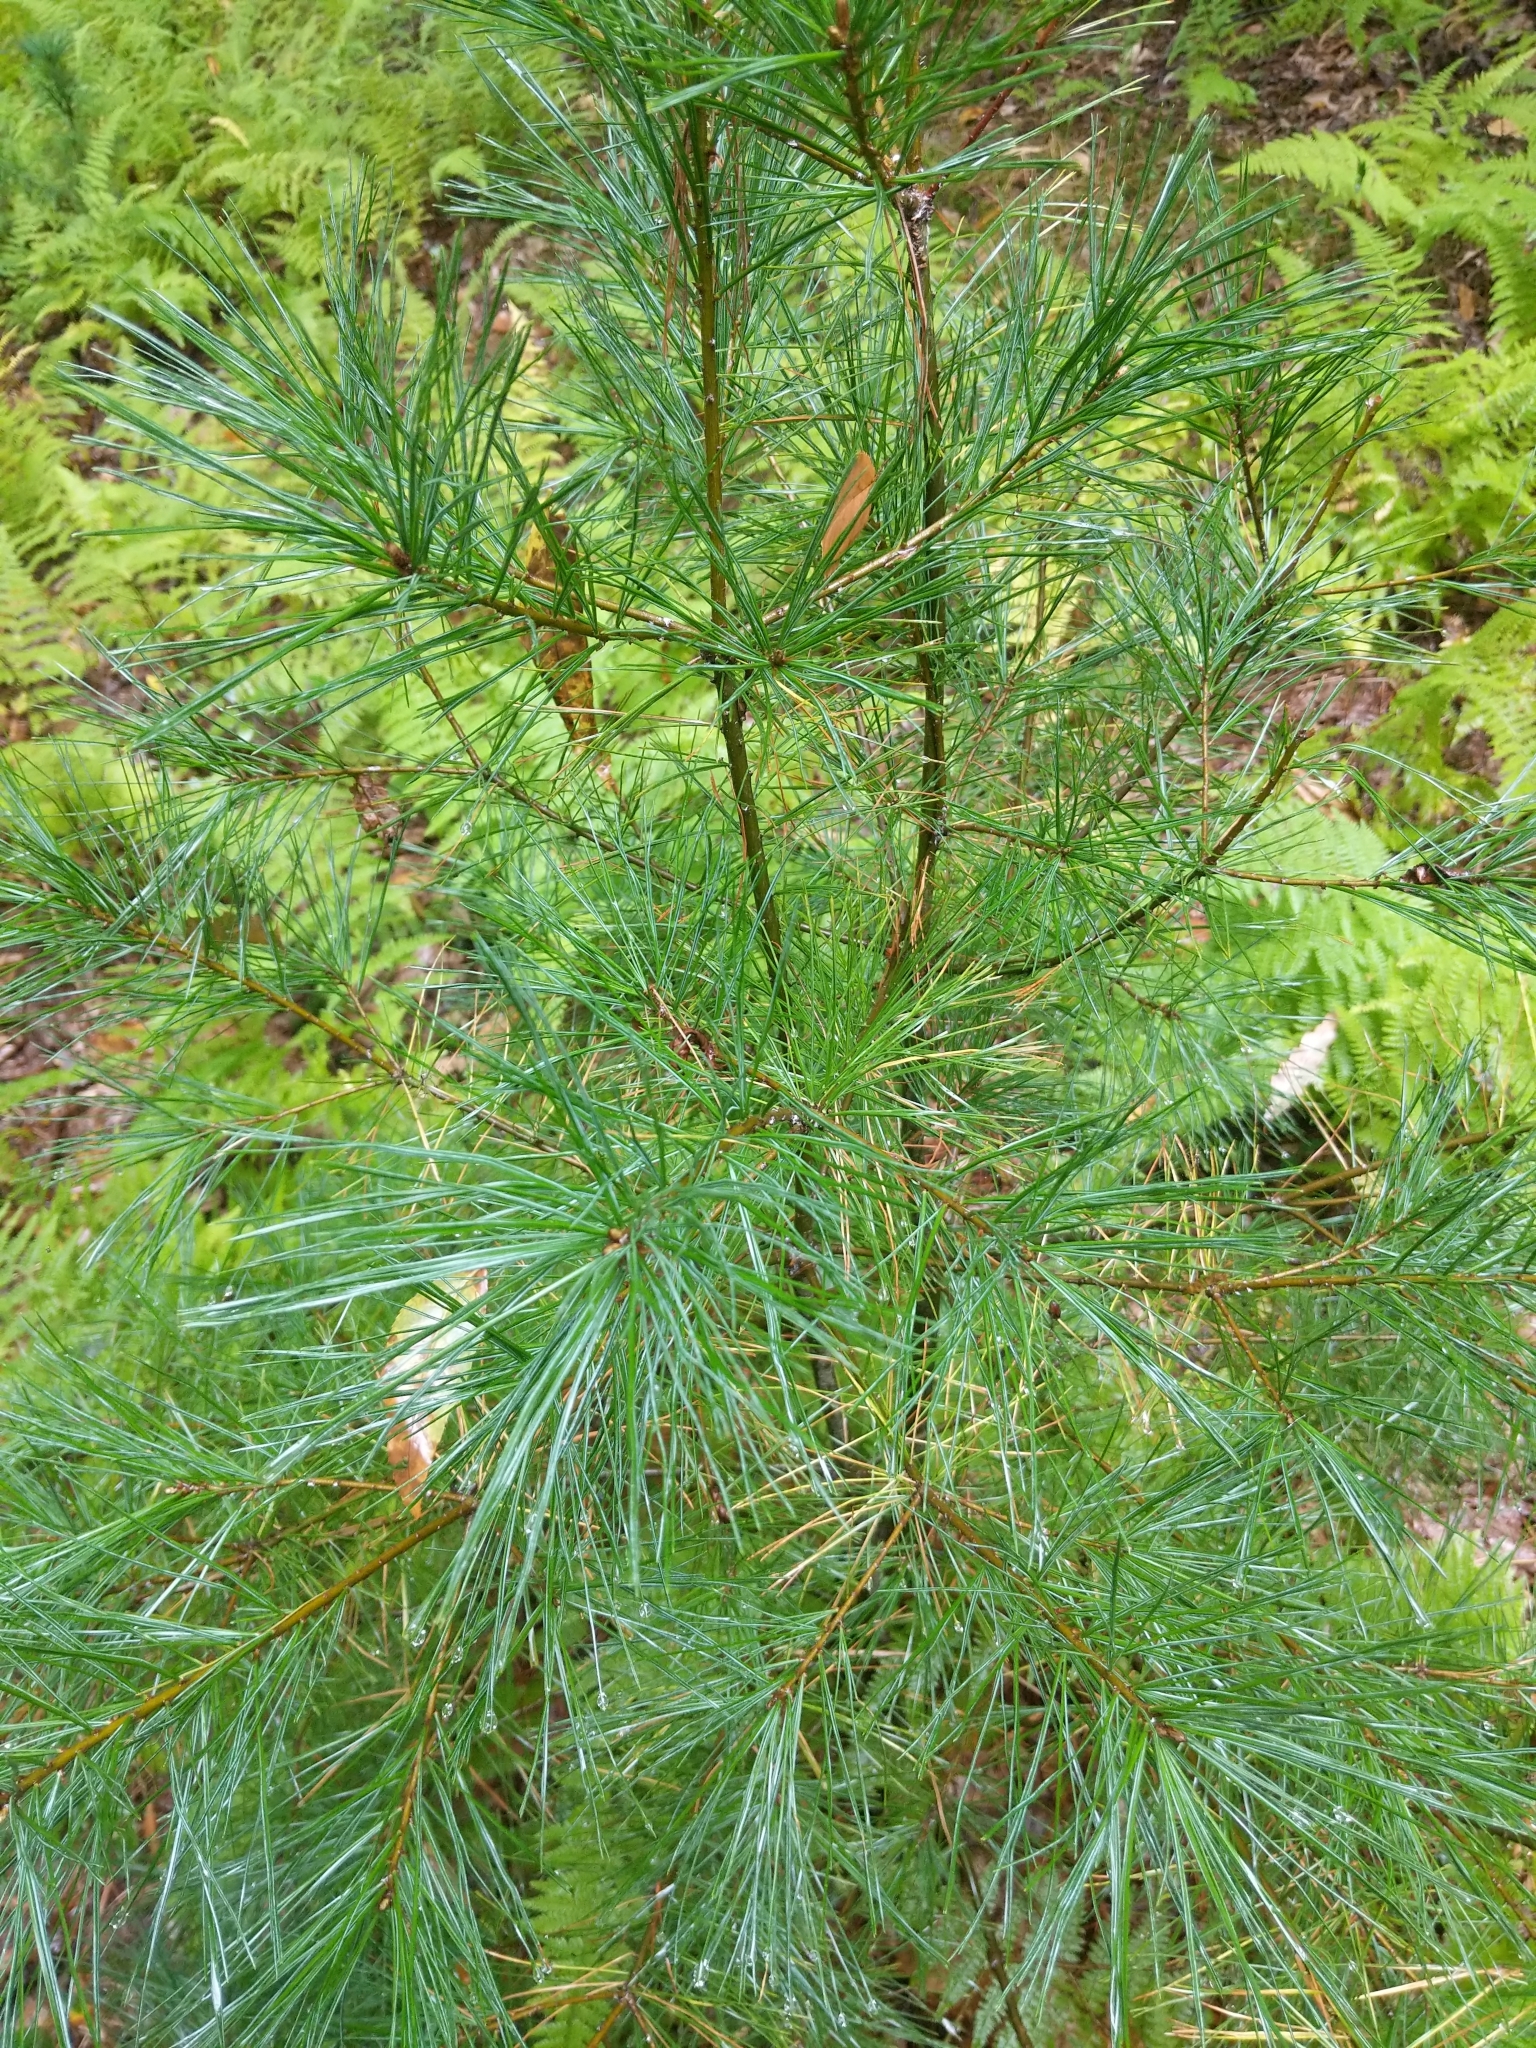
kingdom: Plantae
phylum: Tracheophyta
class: Pinopsida
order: Pinales
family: Pinaceae
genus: Pinus
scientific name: Pinus strobus
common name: Weymouth pine
